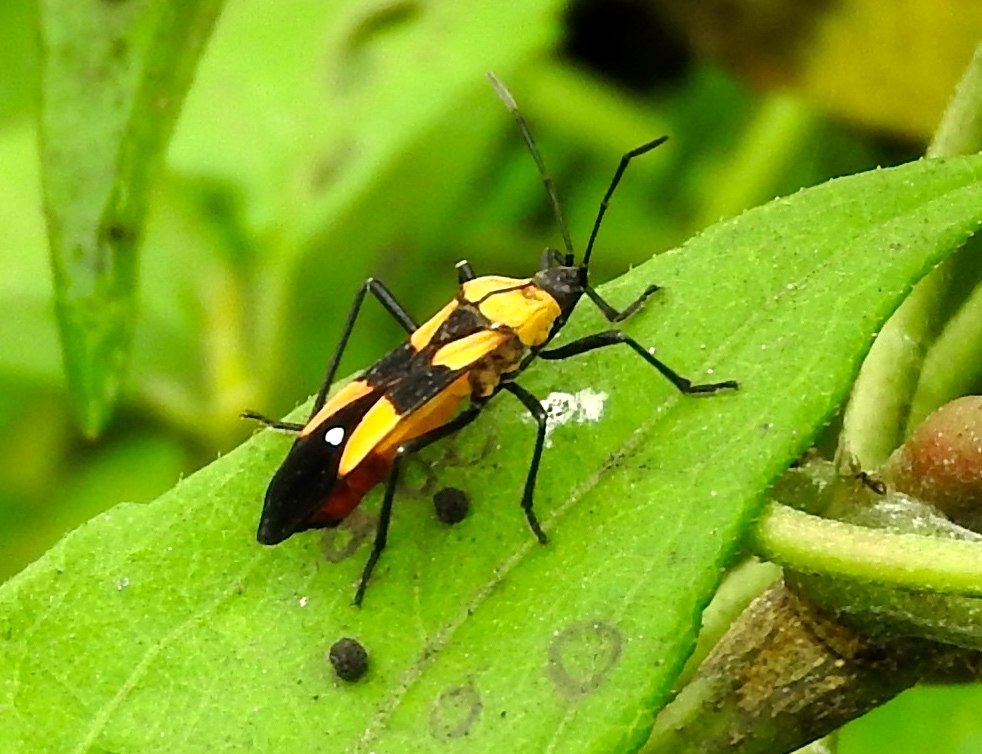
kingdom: Animalia
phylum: Arthropoda
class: Insecta
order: Hemiptera
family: Lygaeidae
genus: Oncopeltus
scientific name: Oncopeltus sexmaculatus
